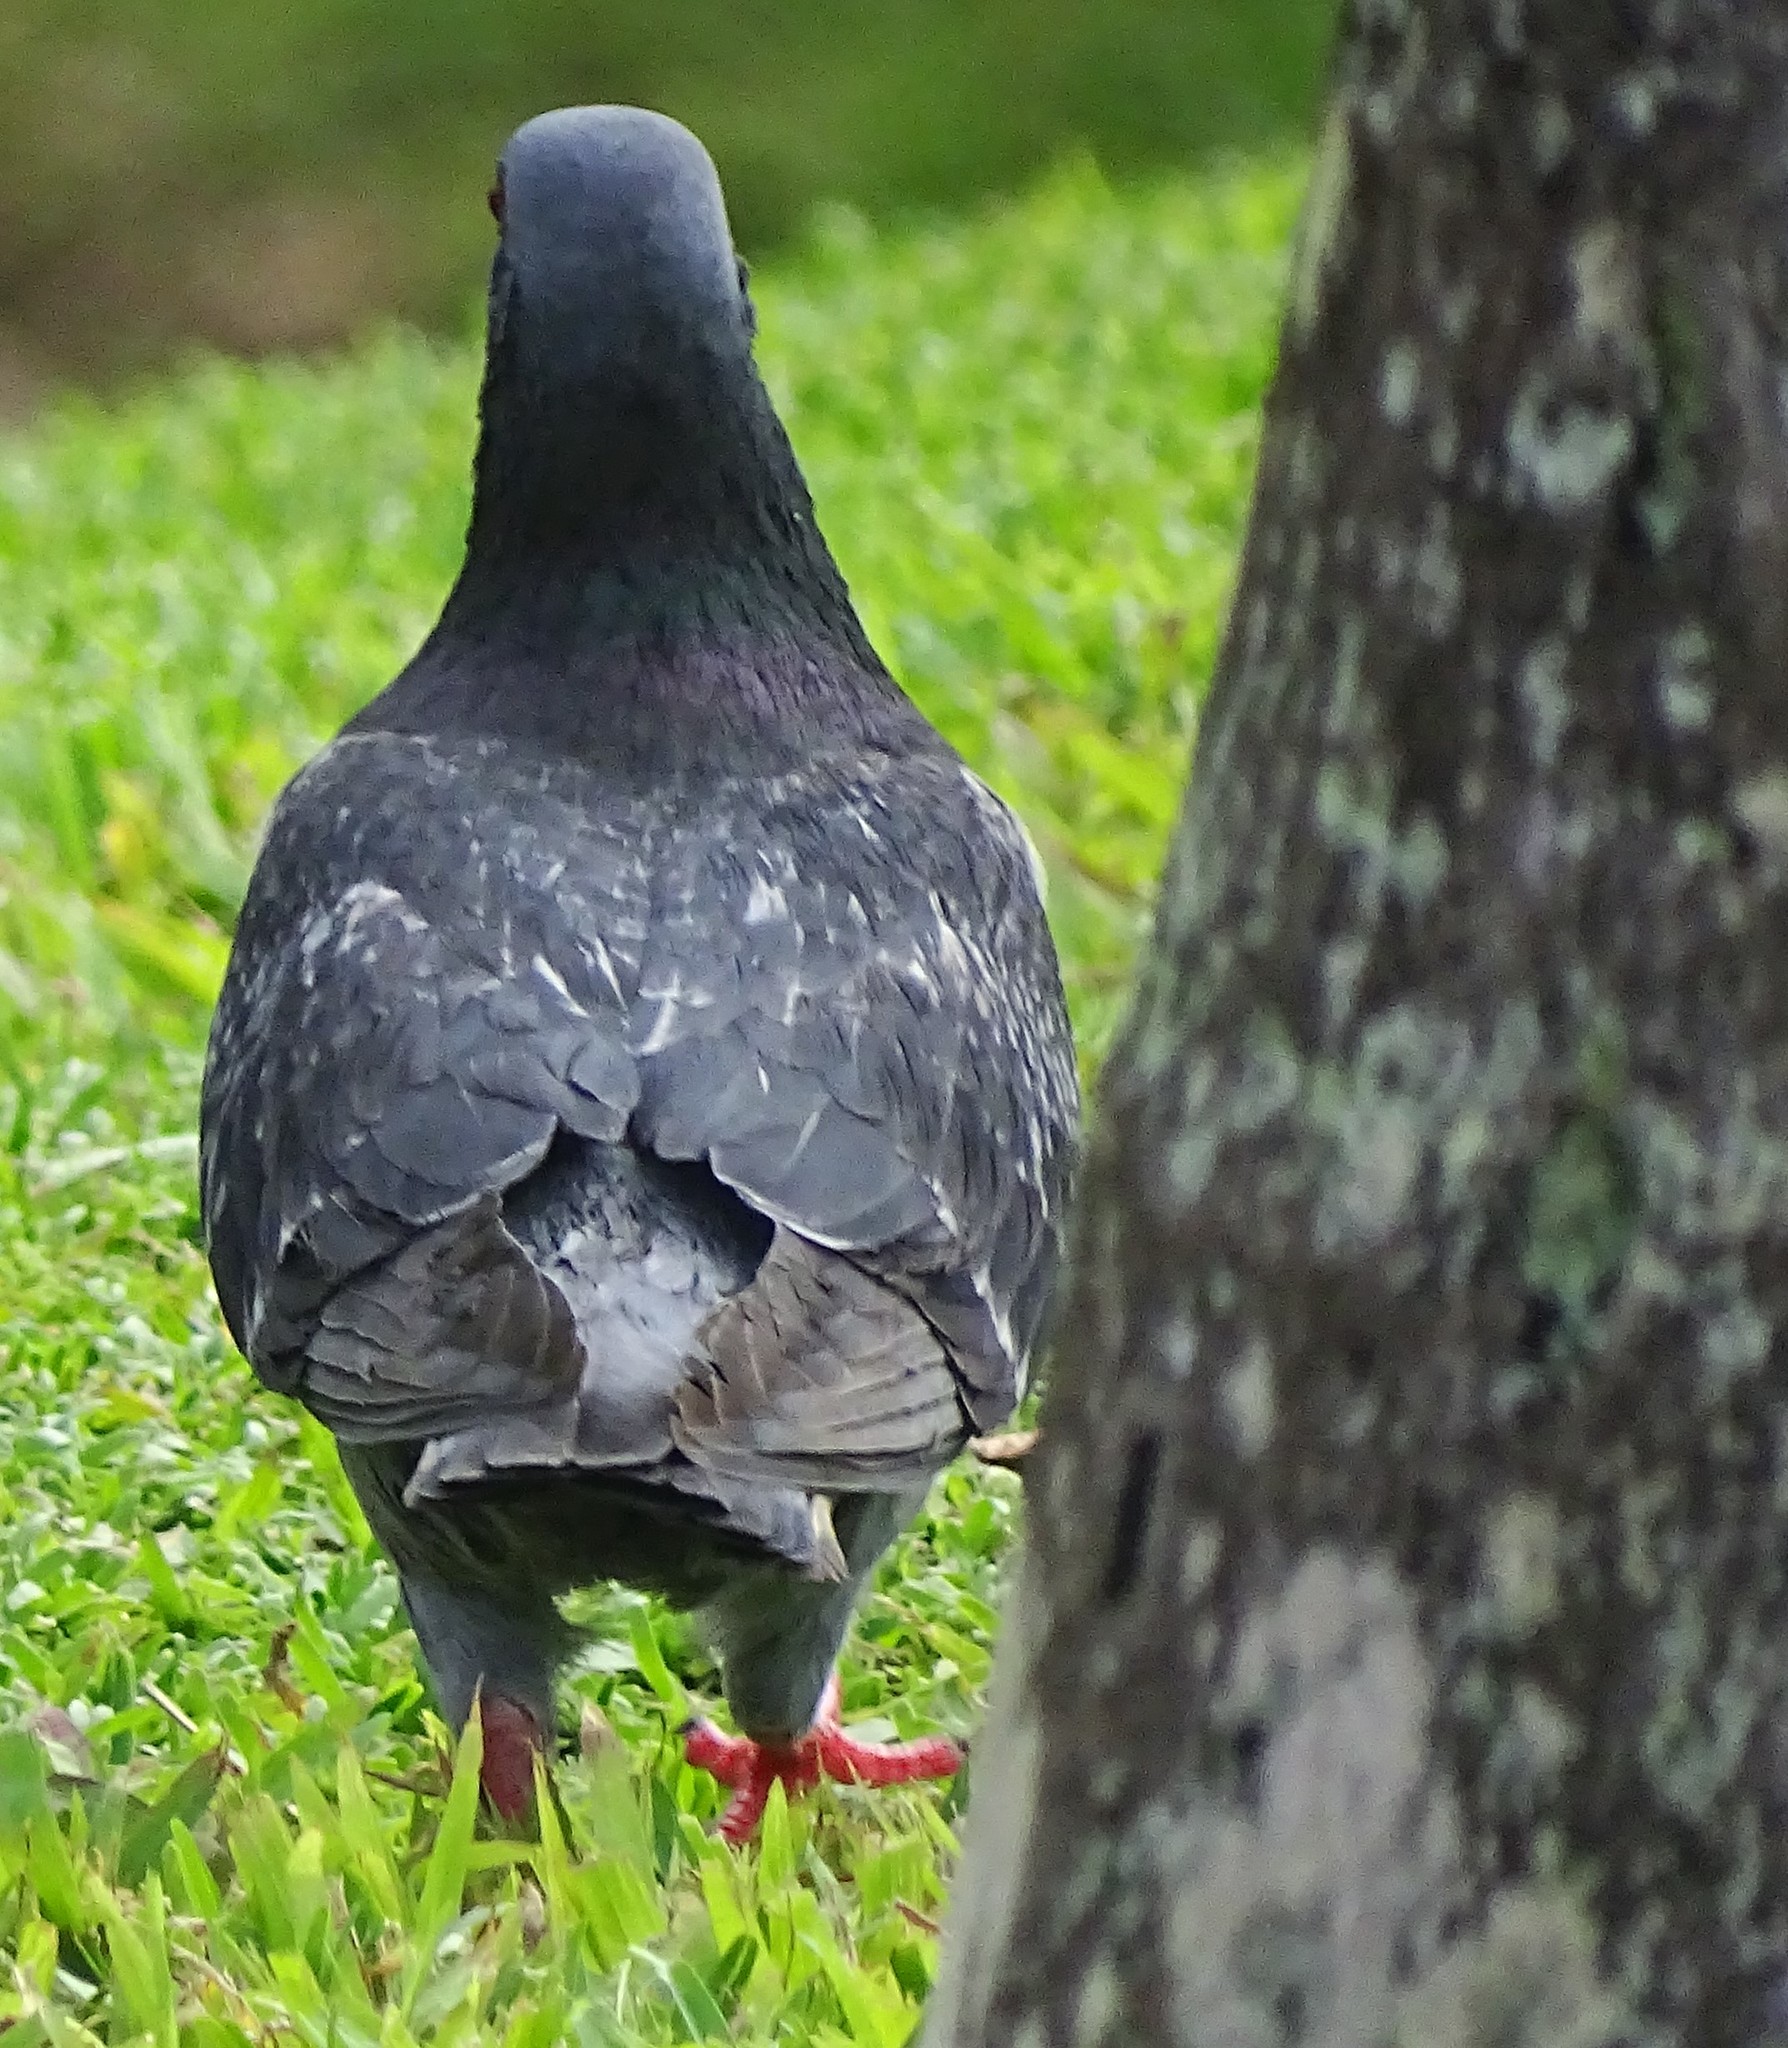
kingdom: Animalia
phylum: Chordata
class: Aves
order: Columbiformes
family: Columbidae
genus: Columba
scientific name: Columba livia
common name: Rock pigeon
